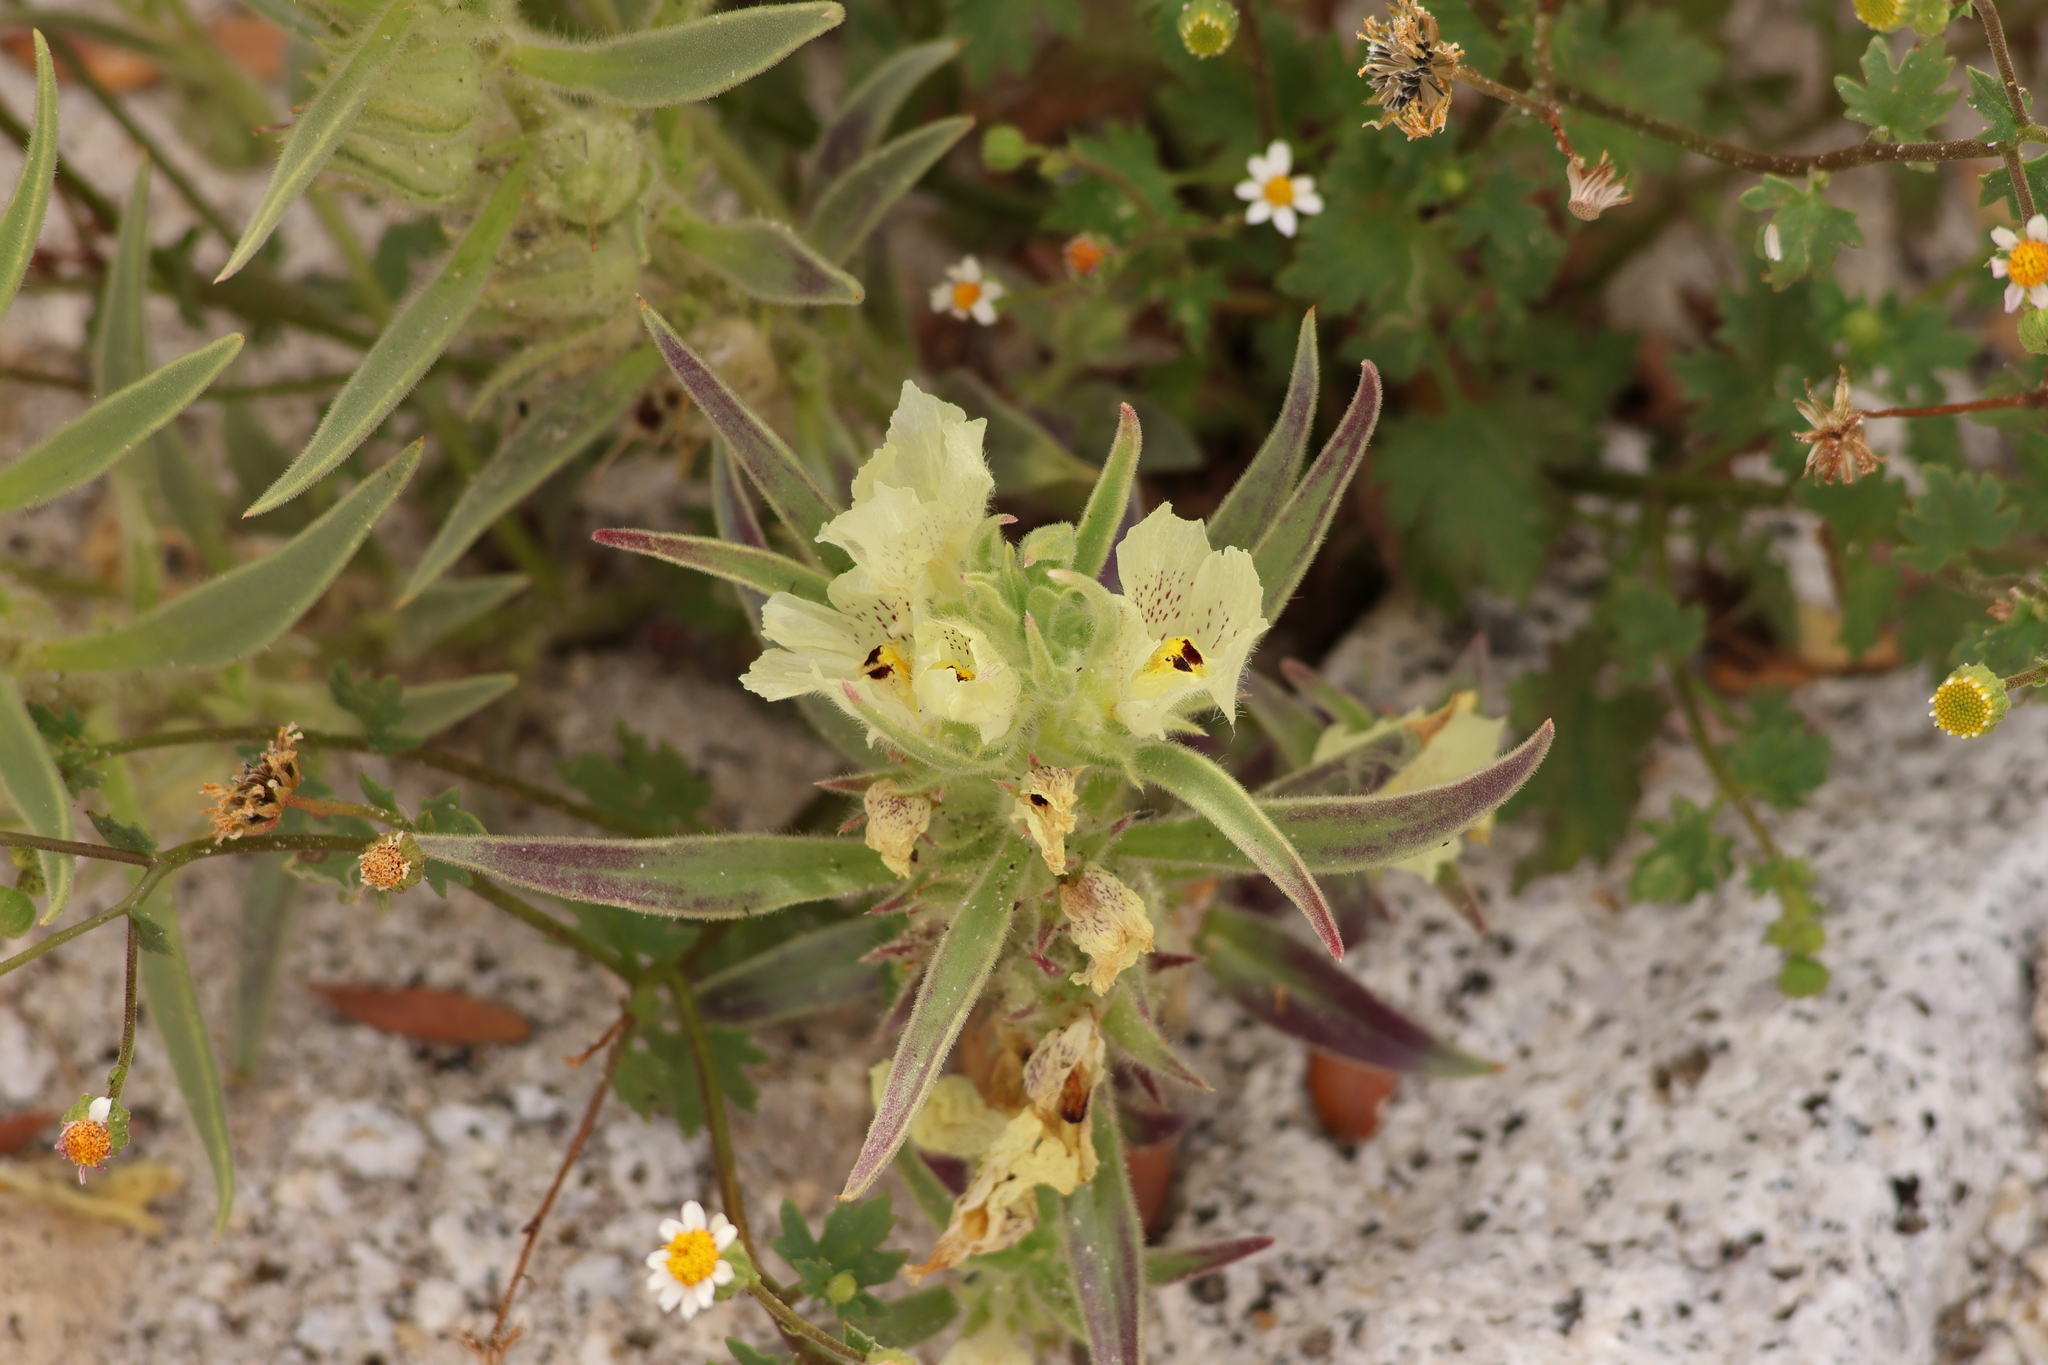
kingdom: Plantae
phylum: Tracheophyta
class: Magnoliopsida
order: Lamiales
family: Plantaginaceae
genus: Mohavea
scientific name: Mohavea confertiflora
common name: Ghost flower
